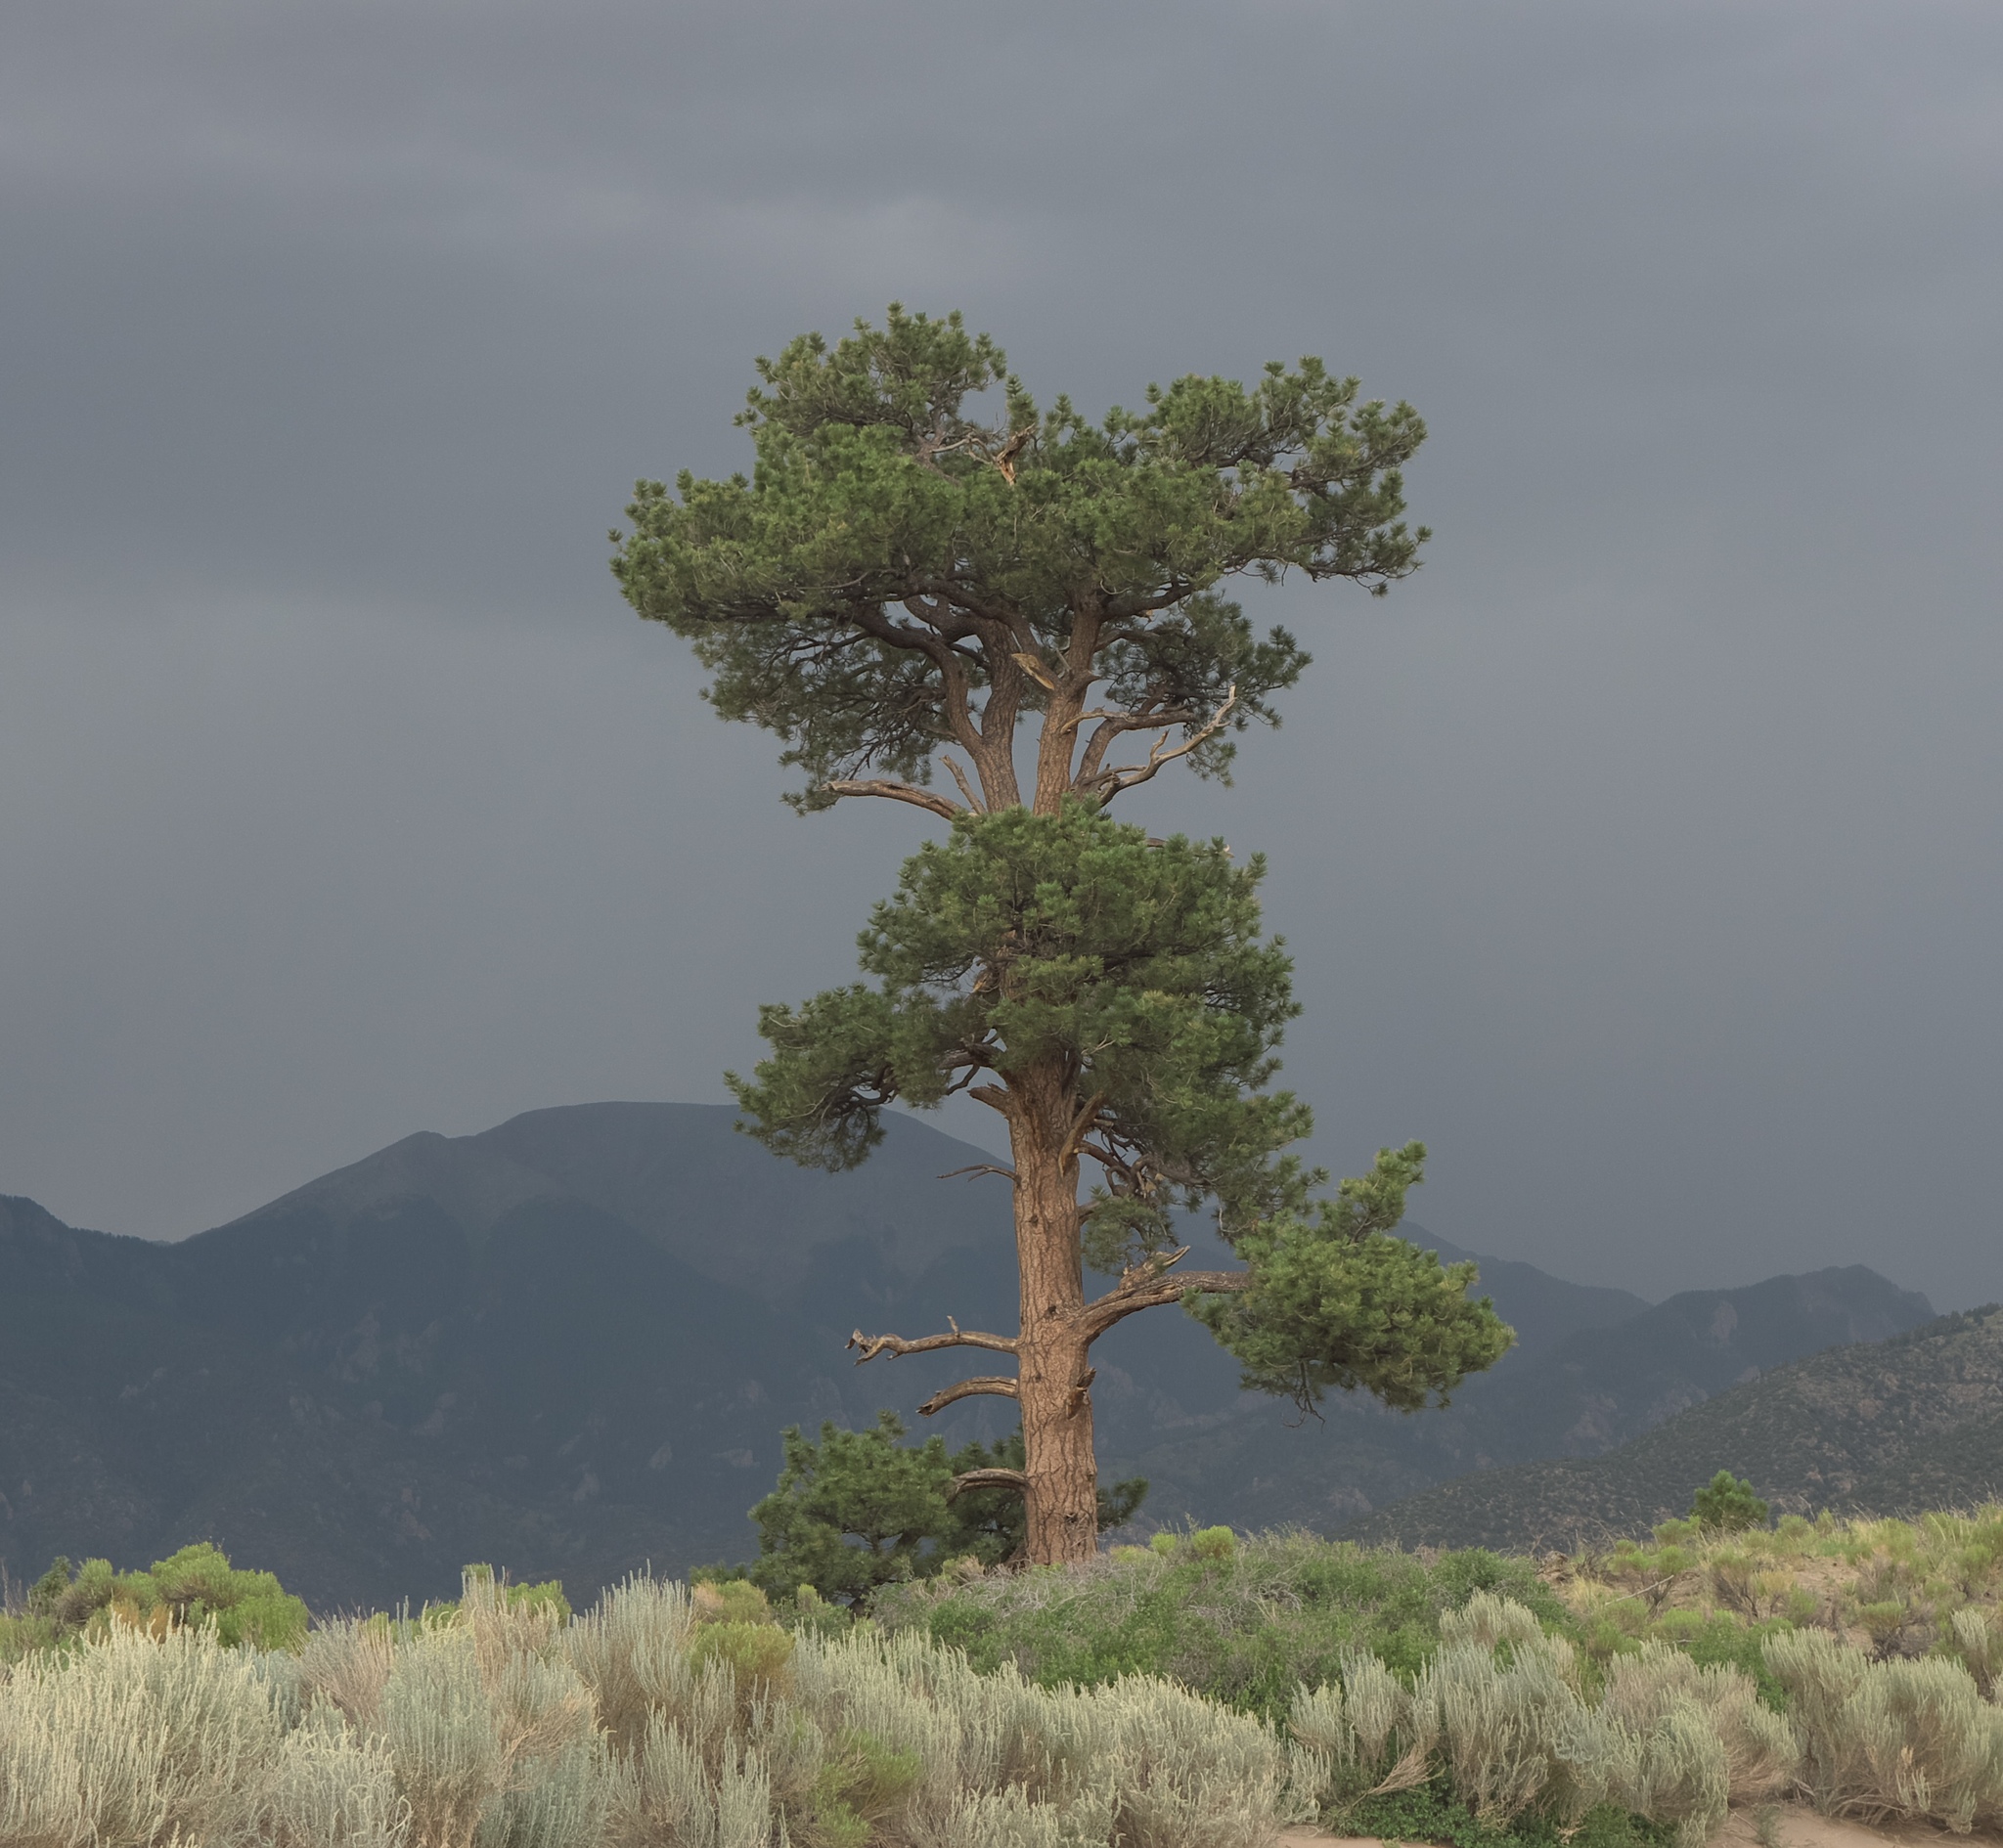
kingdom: Plantae
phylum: Tracheophyta
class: Pinopsida
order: Pinales
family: Pinaceae
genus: Pinus
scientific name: Pinus ponderosa
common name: Western yellow-pine
